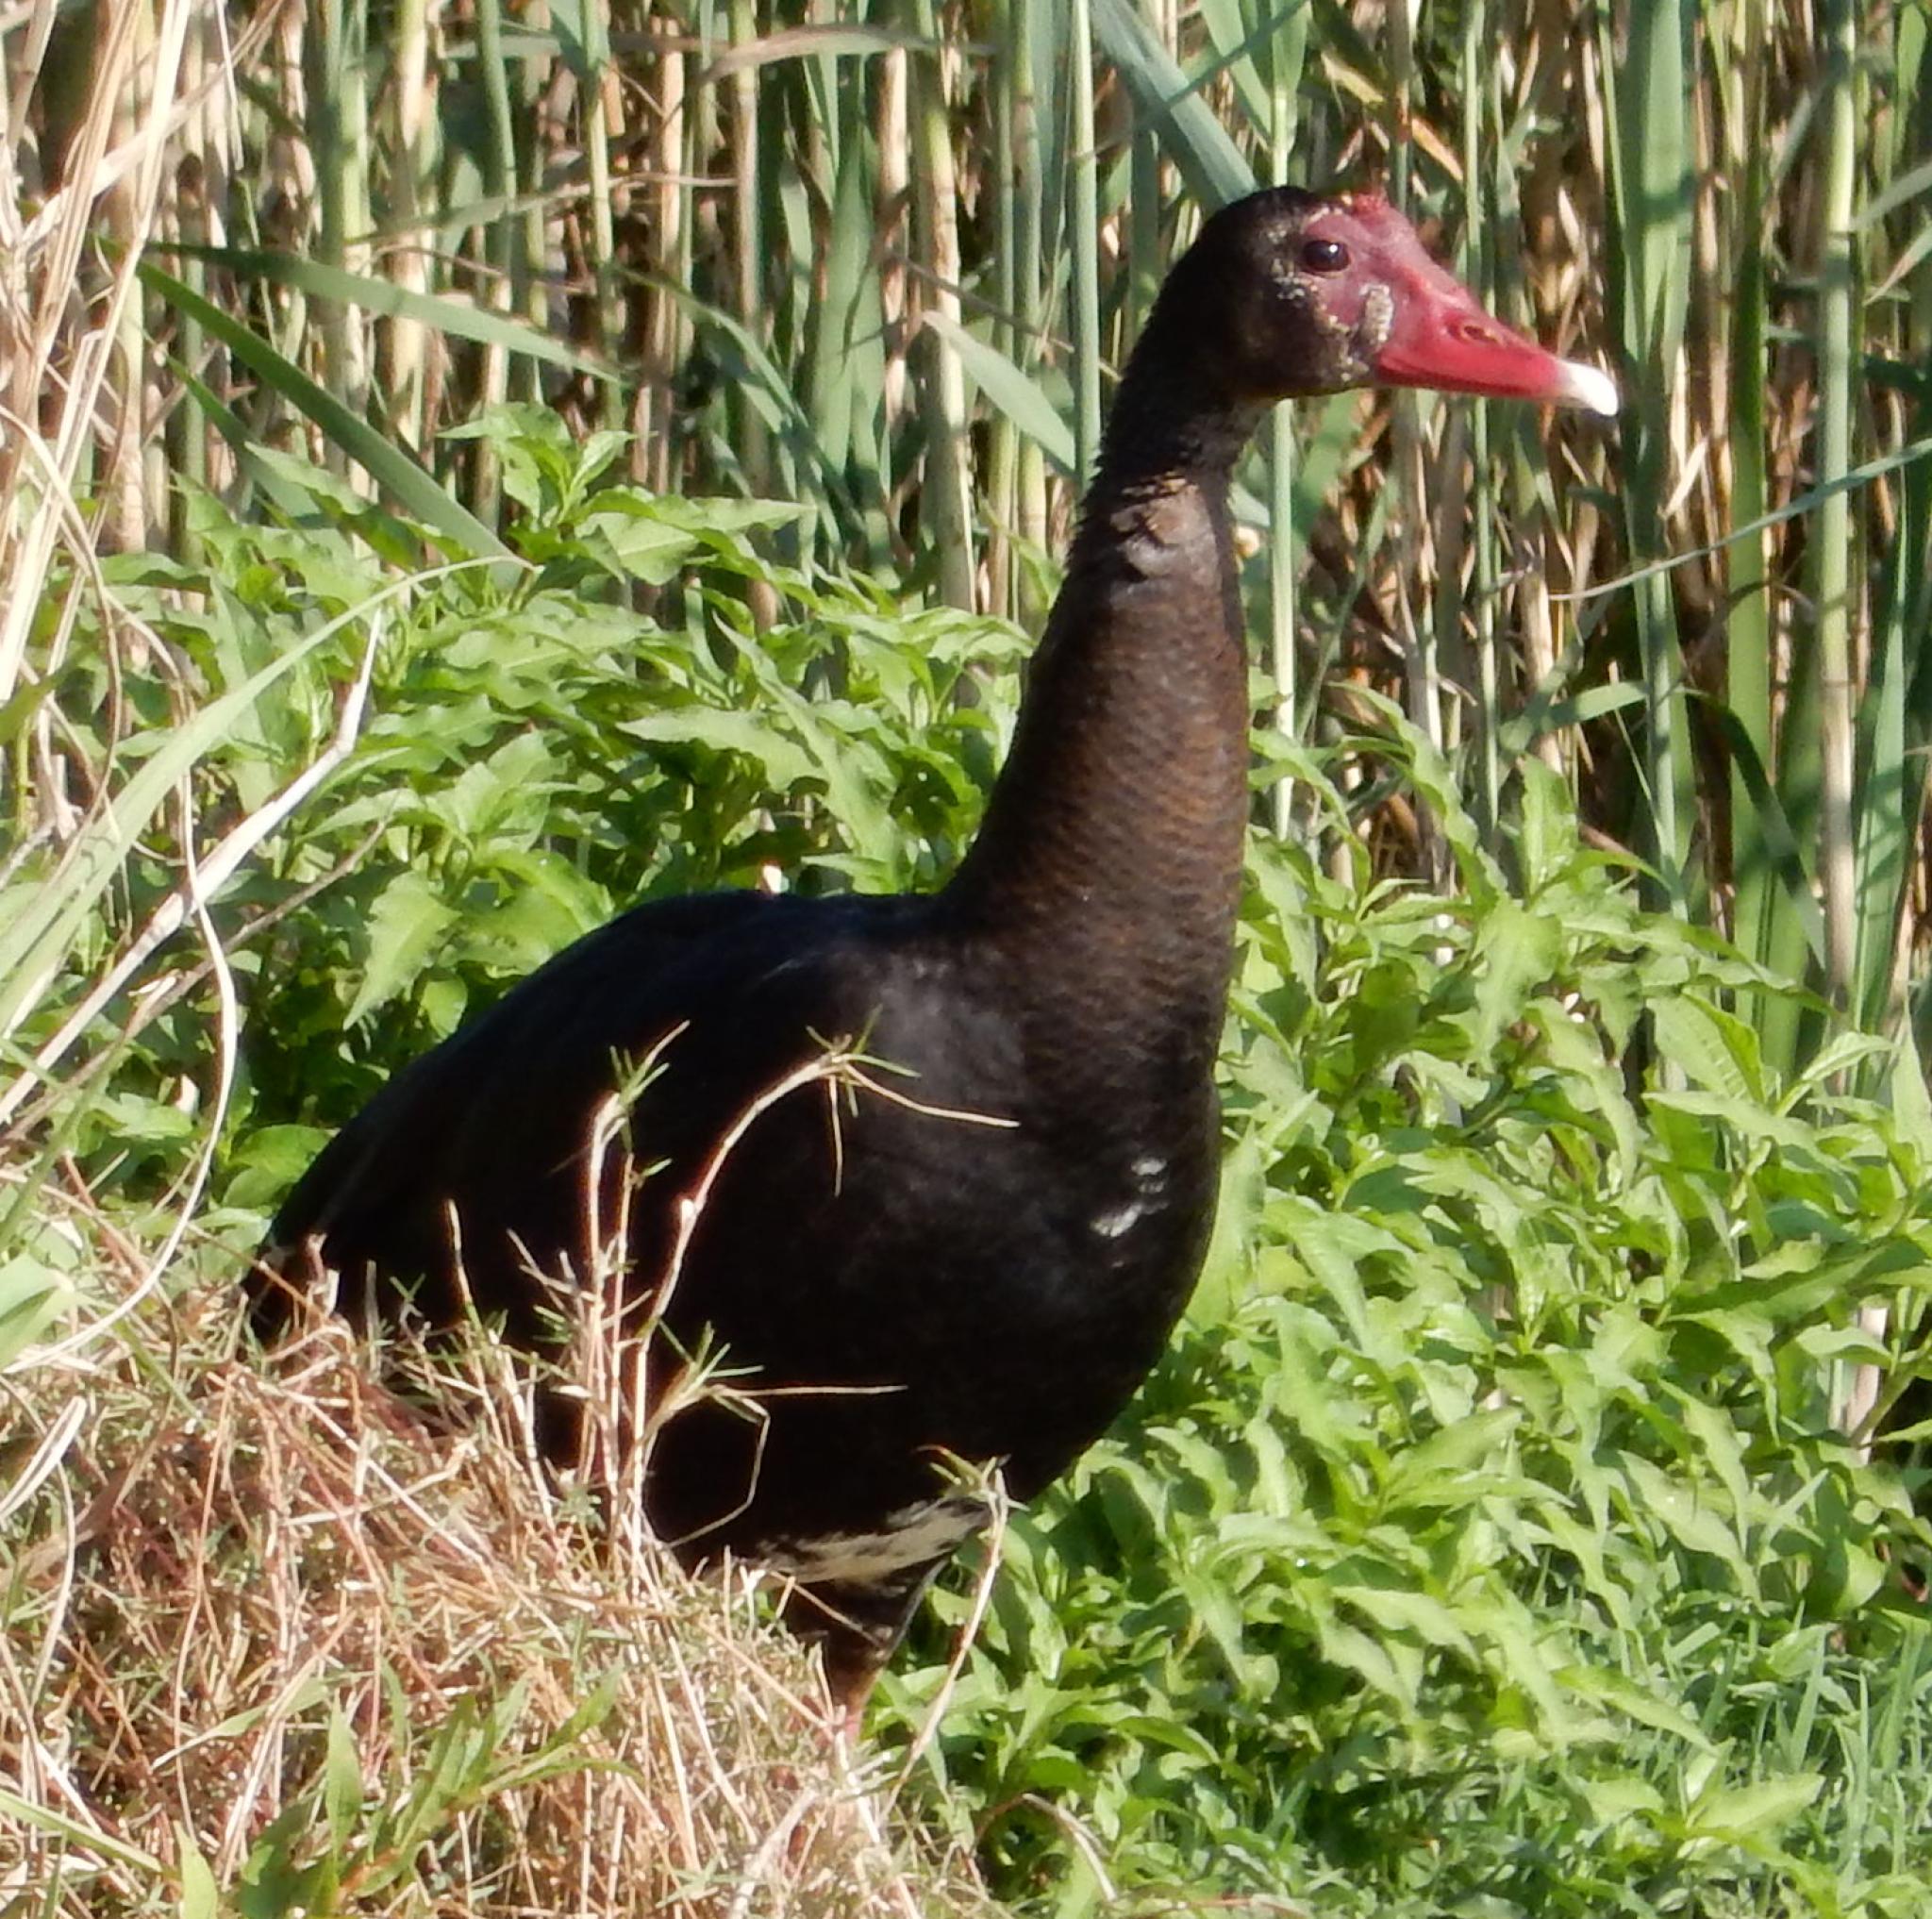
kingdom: Animalia
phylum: Chordata
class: Aves
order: Anseriformes
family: Anatidae
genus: Plectropterus
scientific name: Plectropterus gambensis
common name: Spur-winged goose
